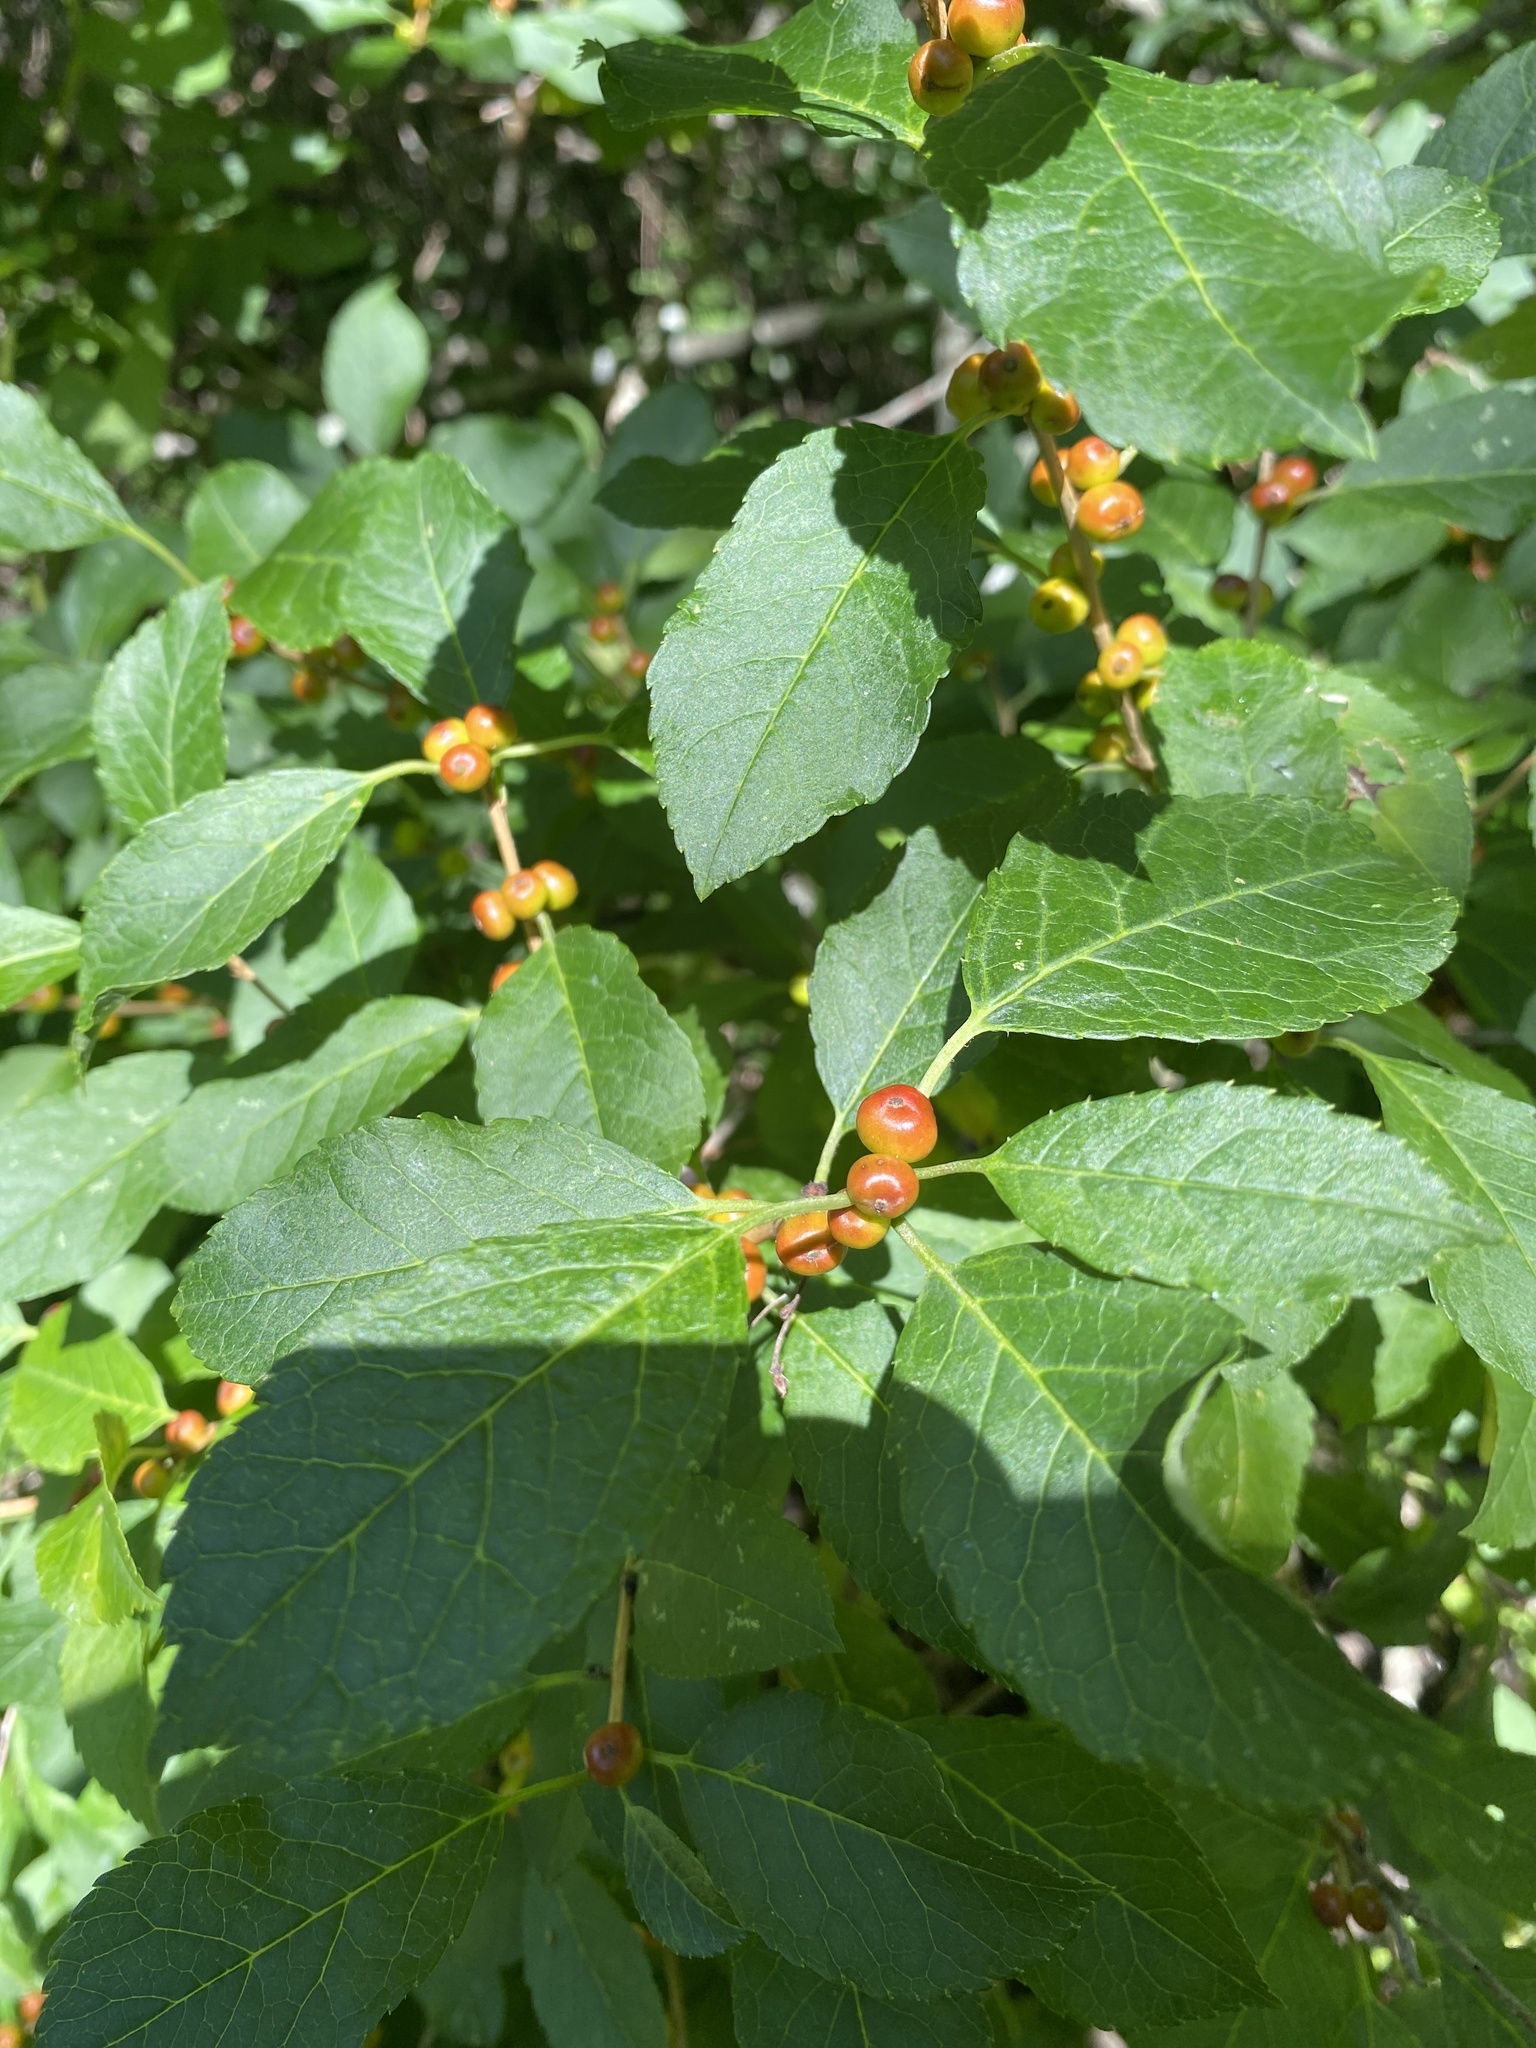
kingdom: Plantae
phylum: Tracheophyta
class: Magnoliopsida
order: Aquifoliales
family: Aquifoliaceae
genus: Ilex
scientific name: Ilex verticillata
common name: Virginia winterberry
